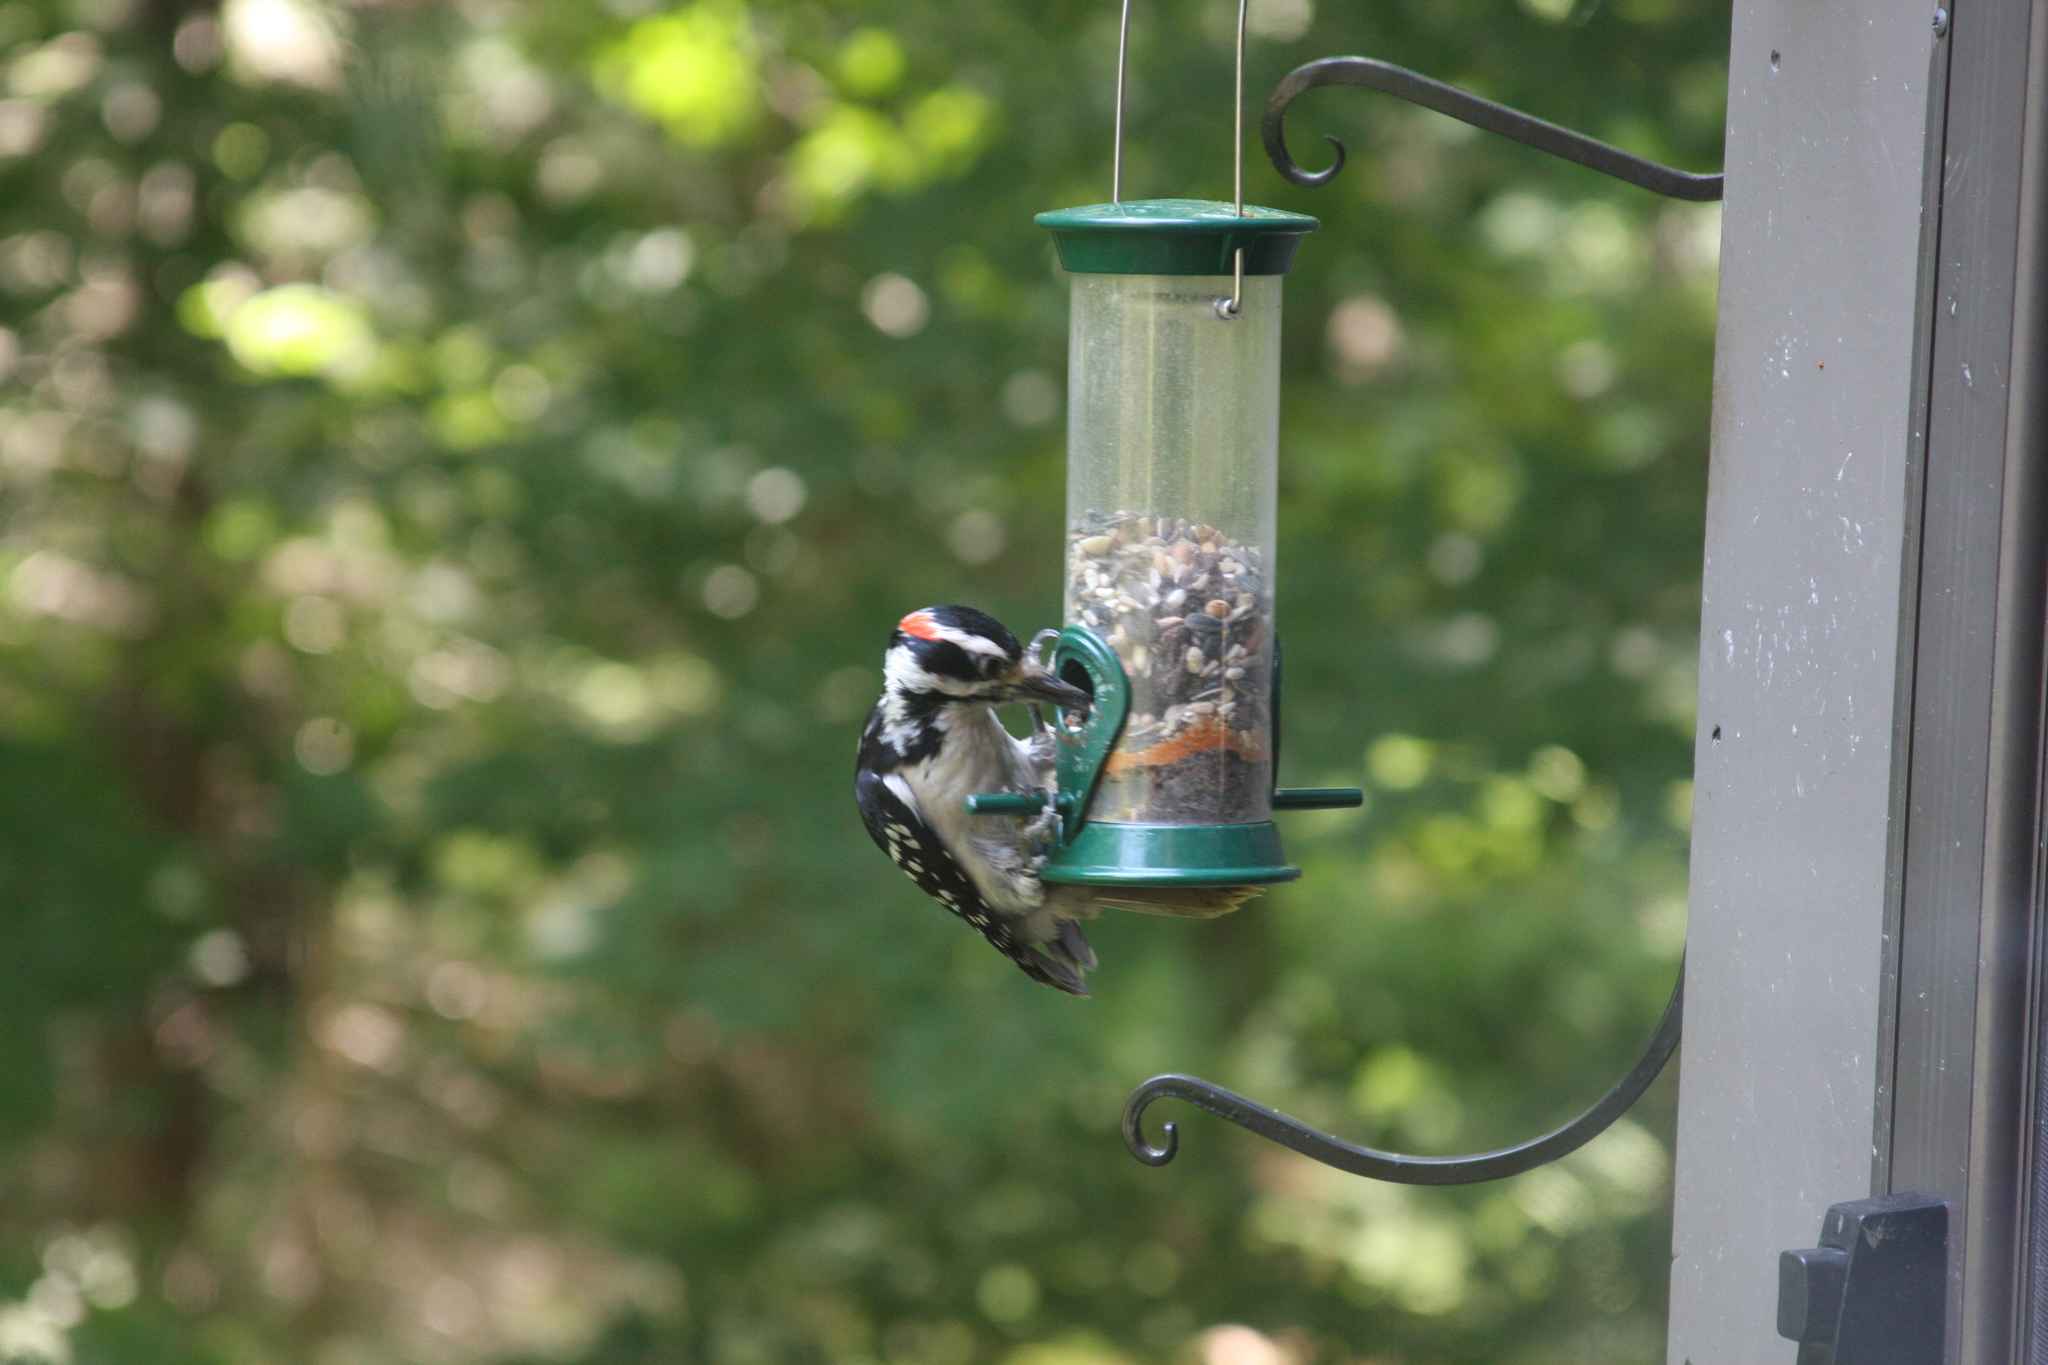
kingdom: Animalia
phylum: Chordata
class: Aves
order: Piciformes
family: Picidae
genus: Leuconotopicus
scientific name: Leuconotopicus villosus
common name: Hairy woodpecker
